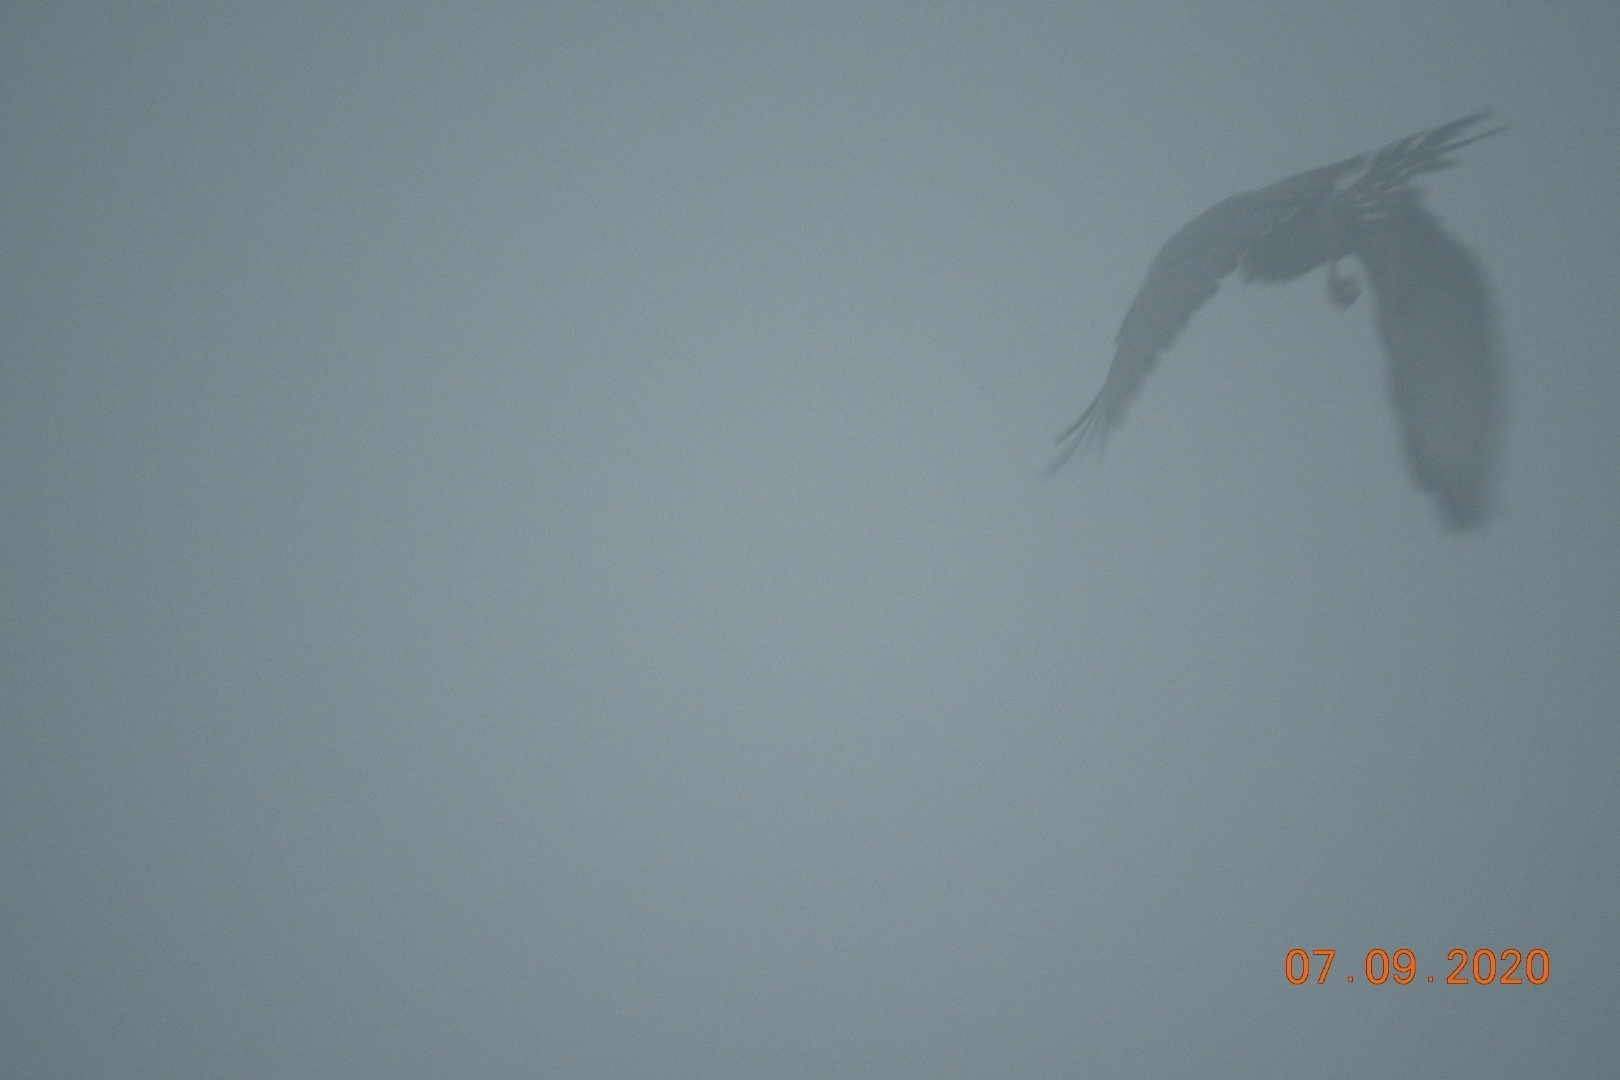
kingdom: Animalia
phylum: Chordata
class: Aves
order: Accipitriformes
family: Accipitridae
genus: Buteo
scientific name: Buteo nitidus
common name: Grey-lined hawk
